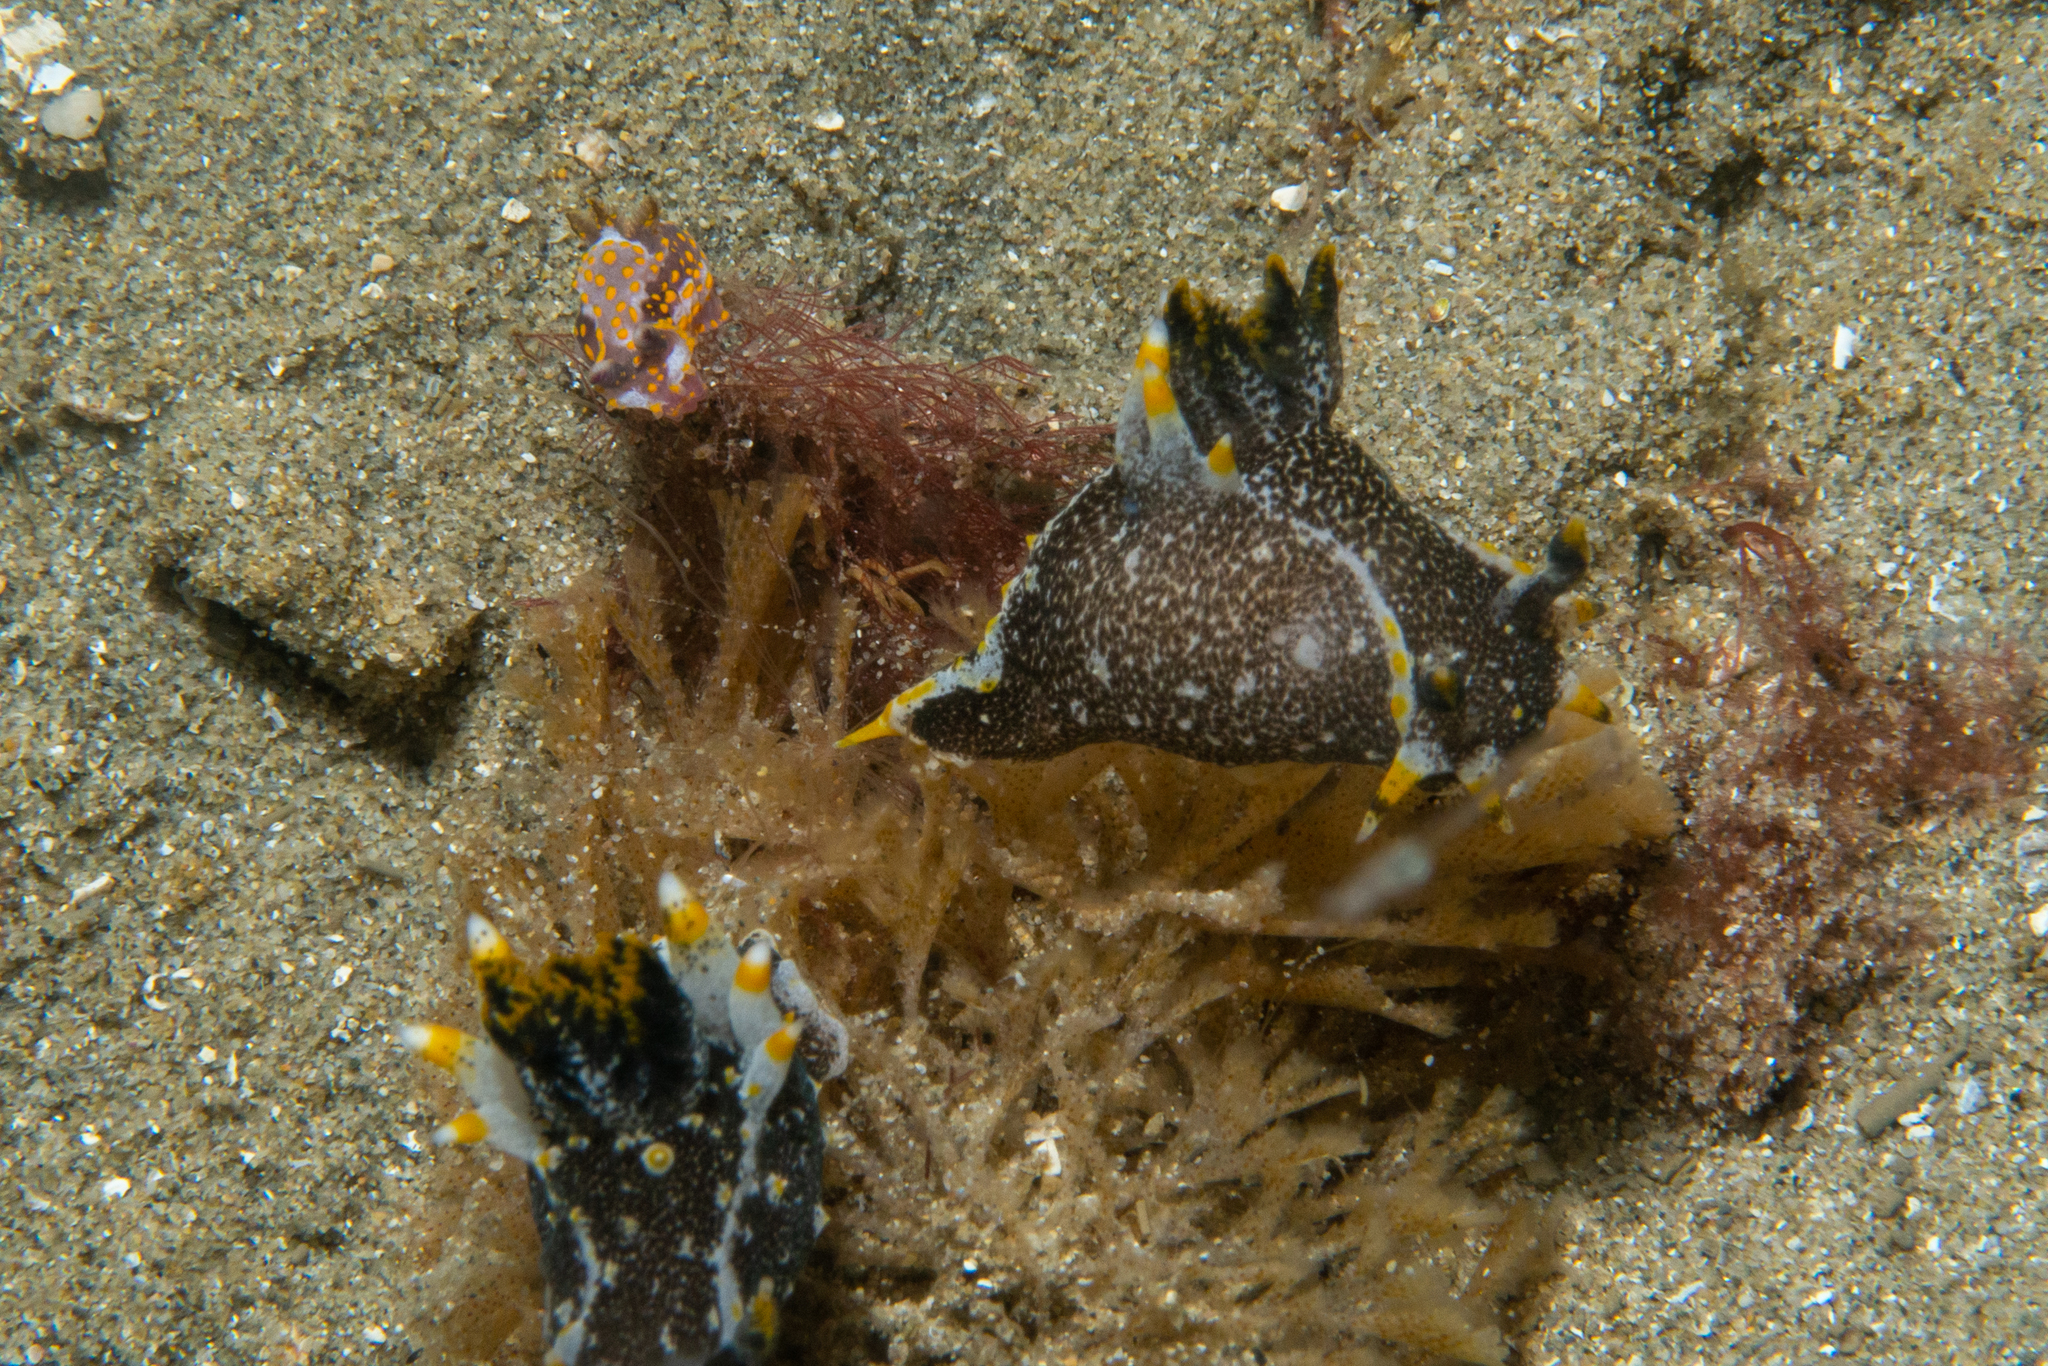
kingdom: Animalia
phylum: Mollusca
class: Gastropoda
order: Nudibranchia
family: Polyceridae
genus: Polycera
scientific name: Polycera janjukia
